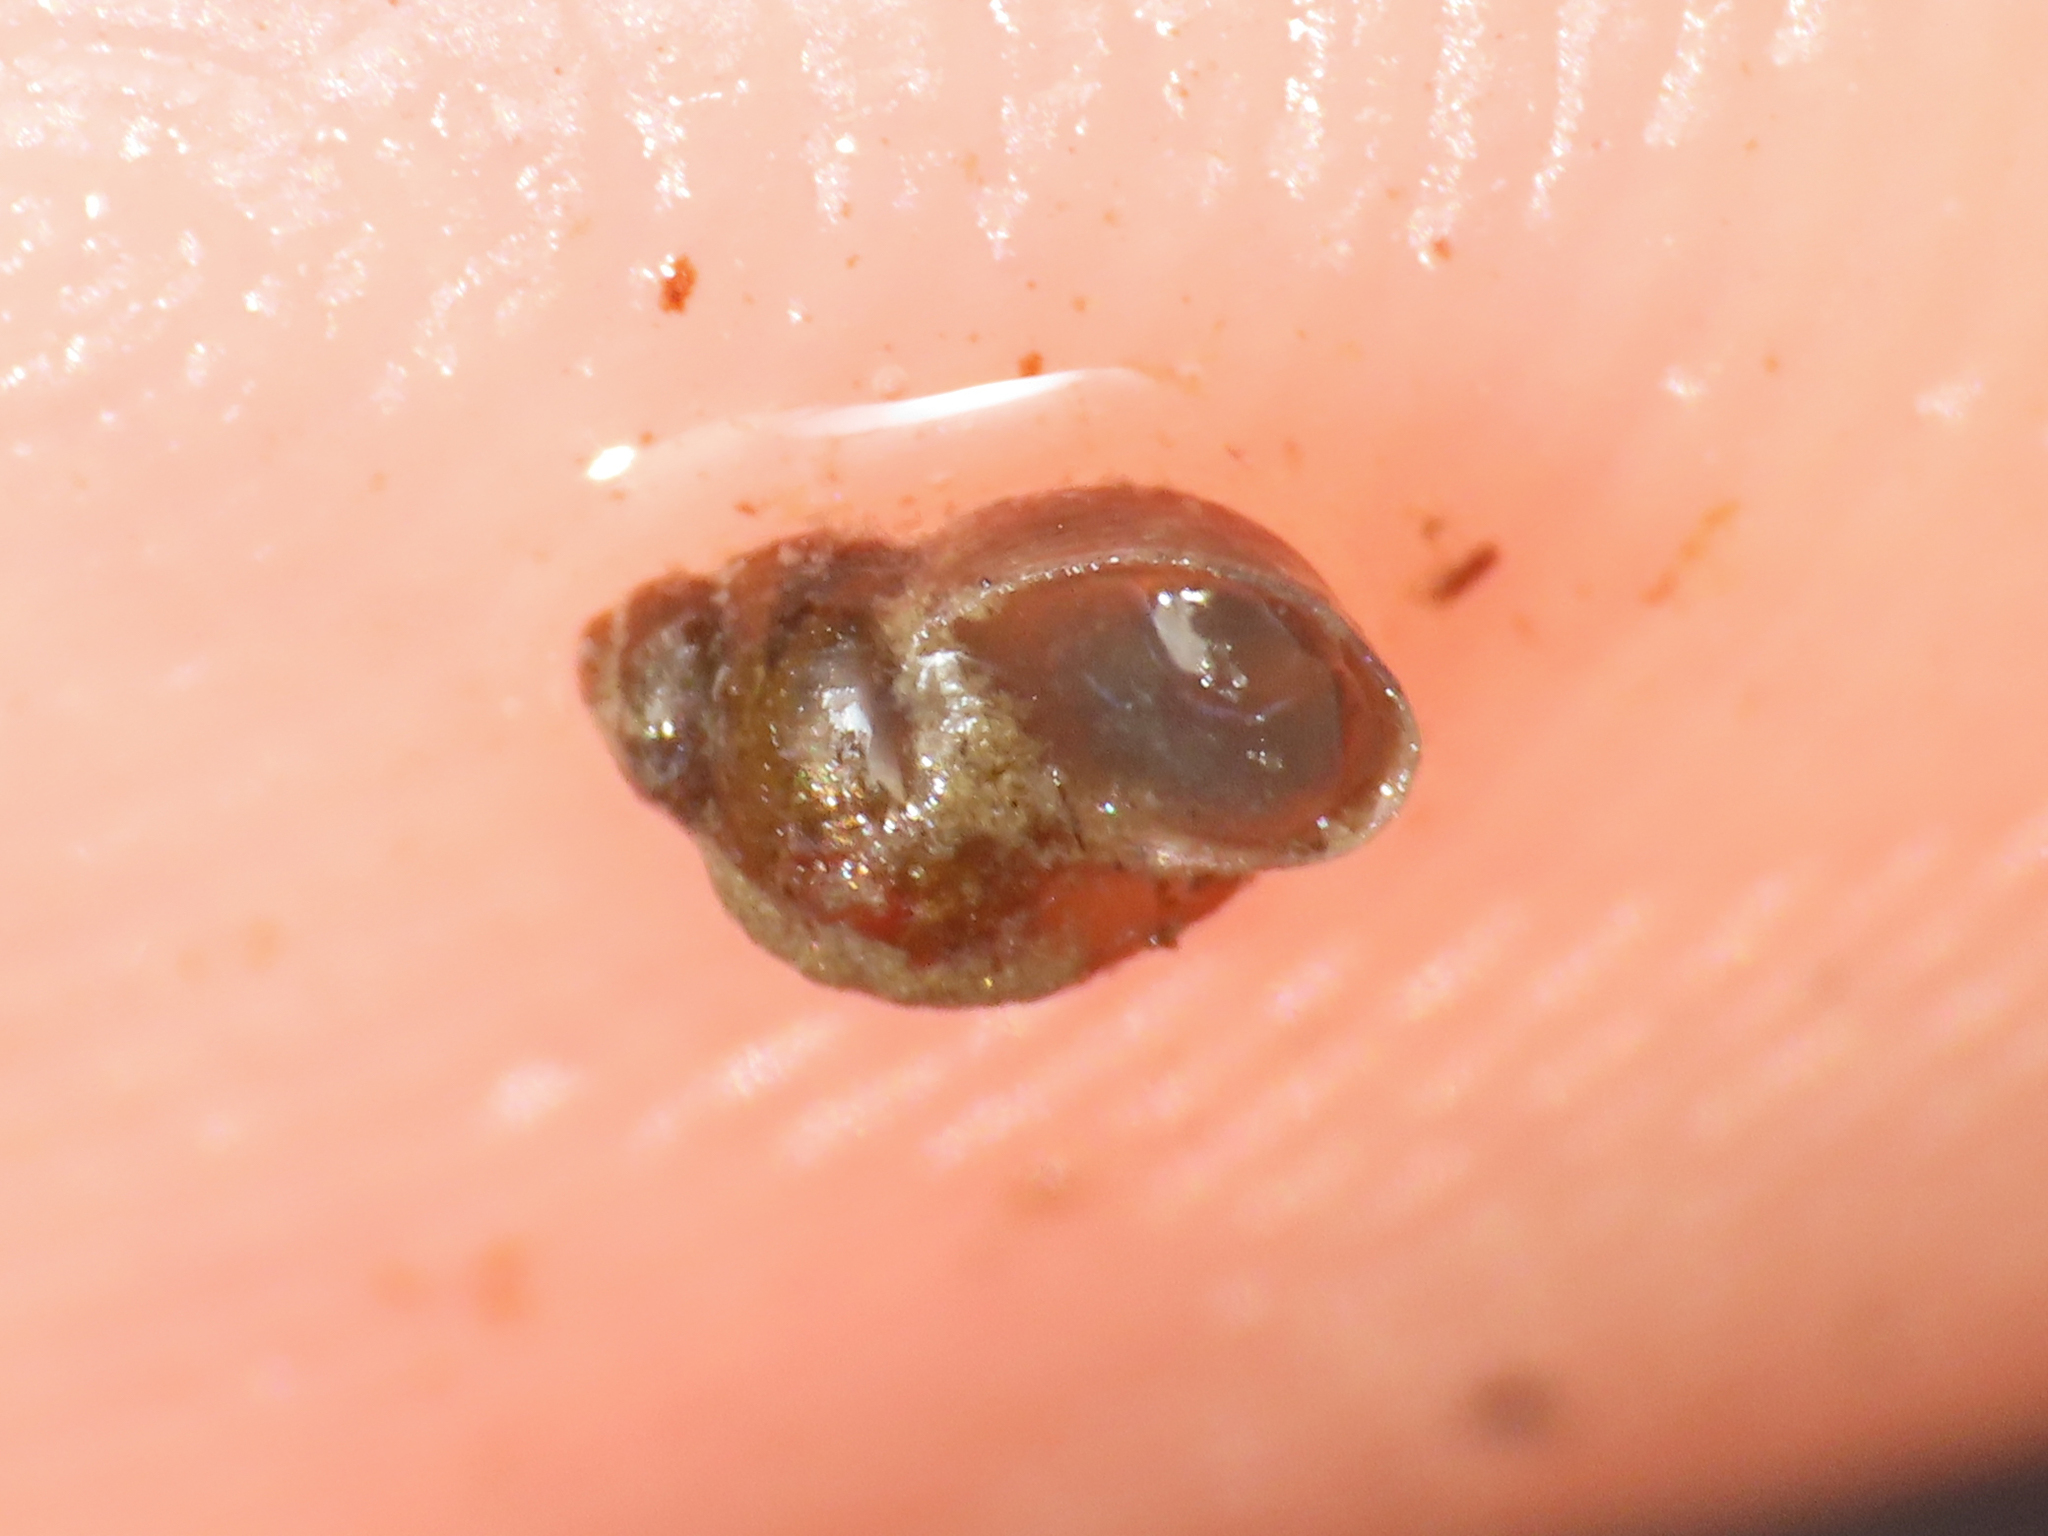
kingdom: Animalia
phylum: Mollusca
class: Gastropoda
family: Lymnaeidae
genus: Galba
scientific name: Galba truncatula
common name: Dwarf pond snail
